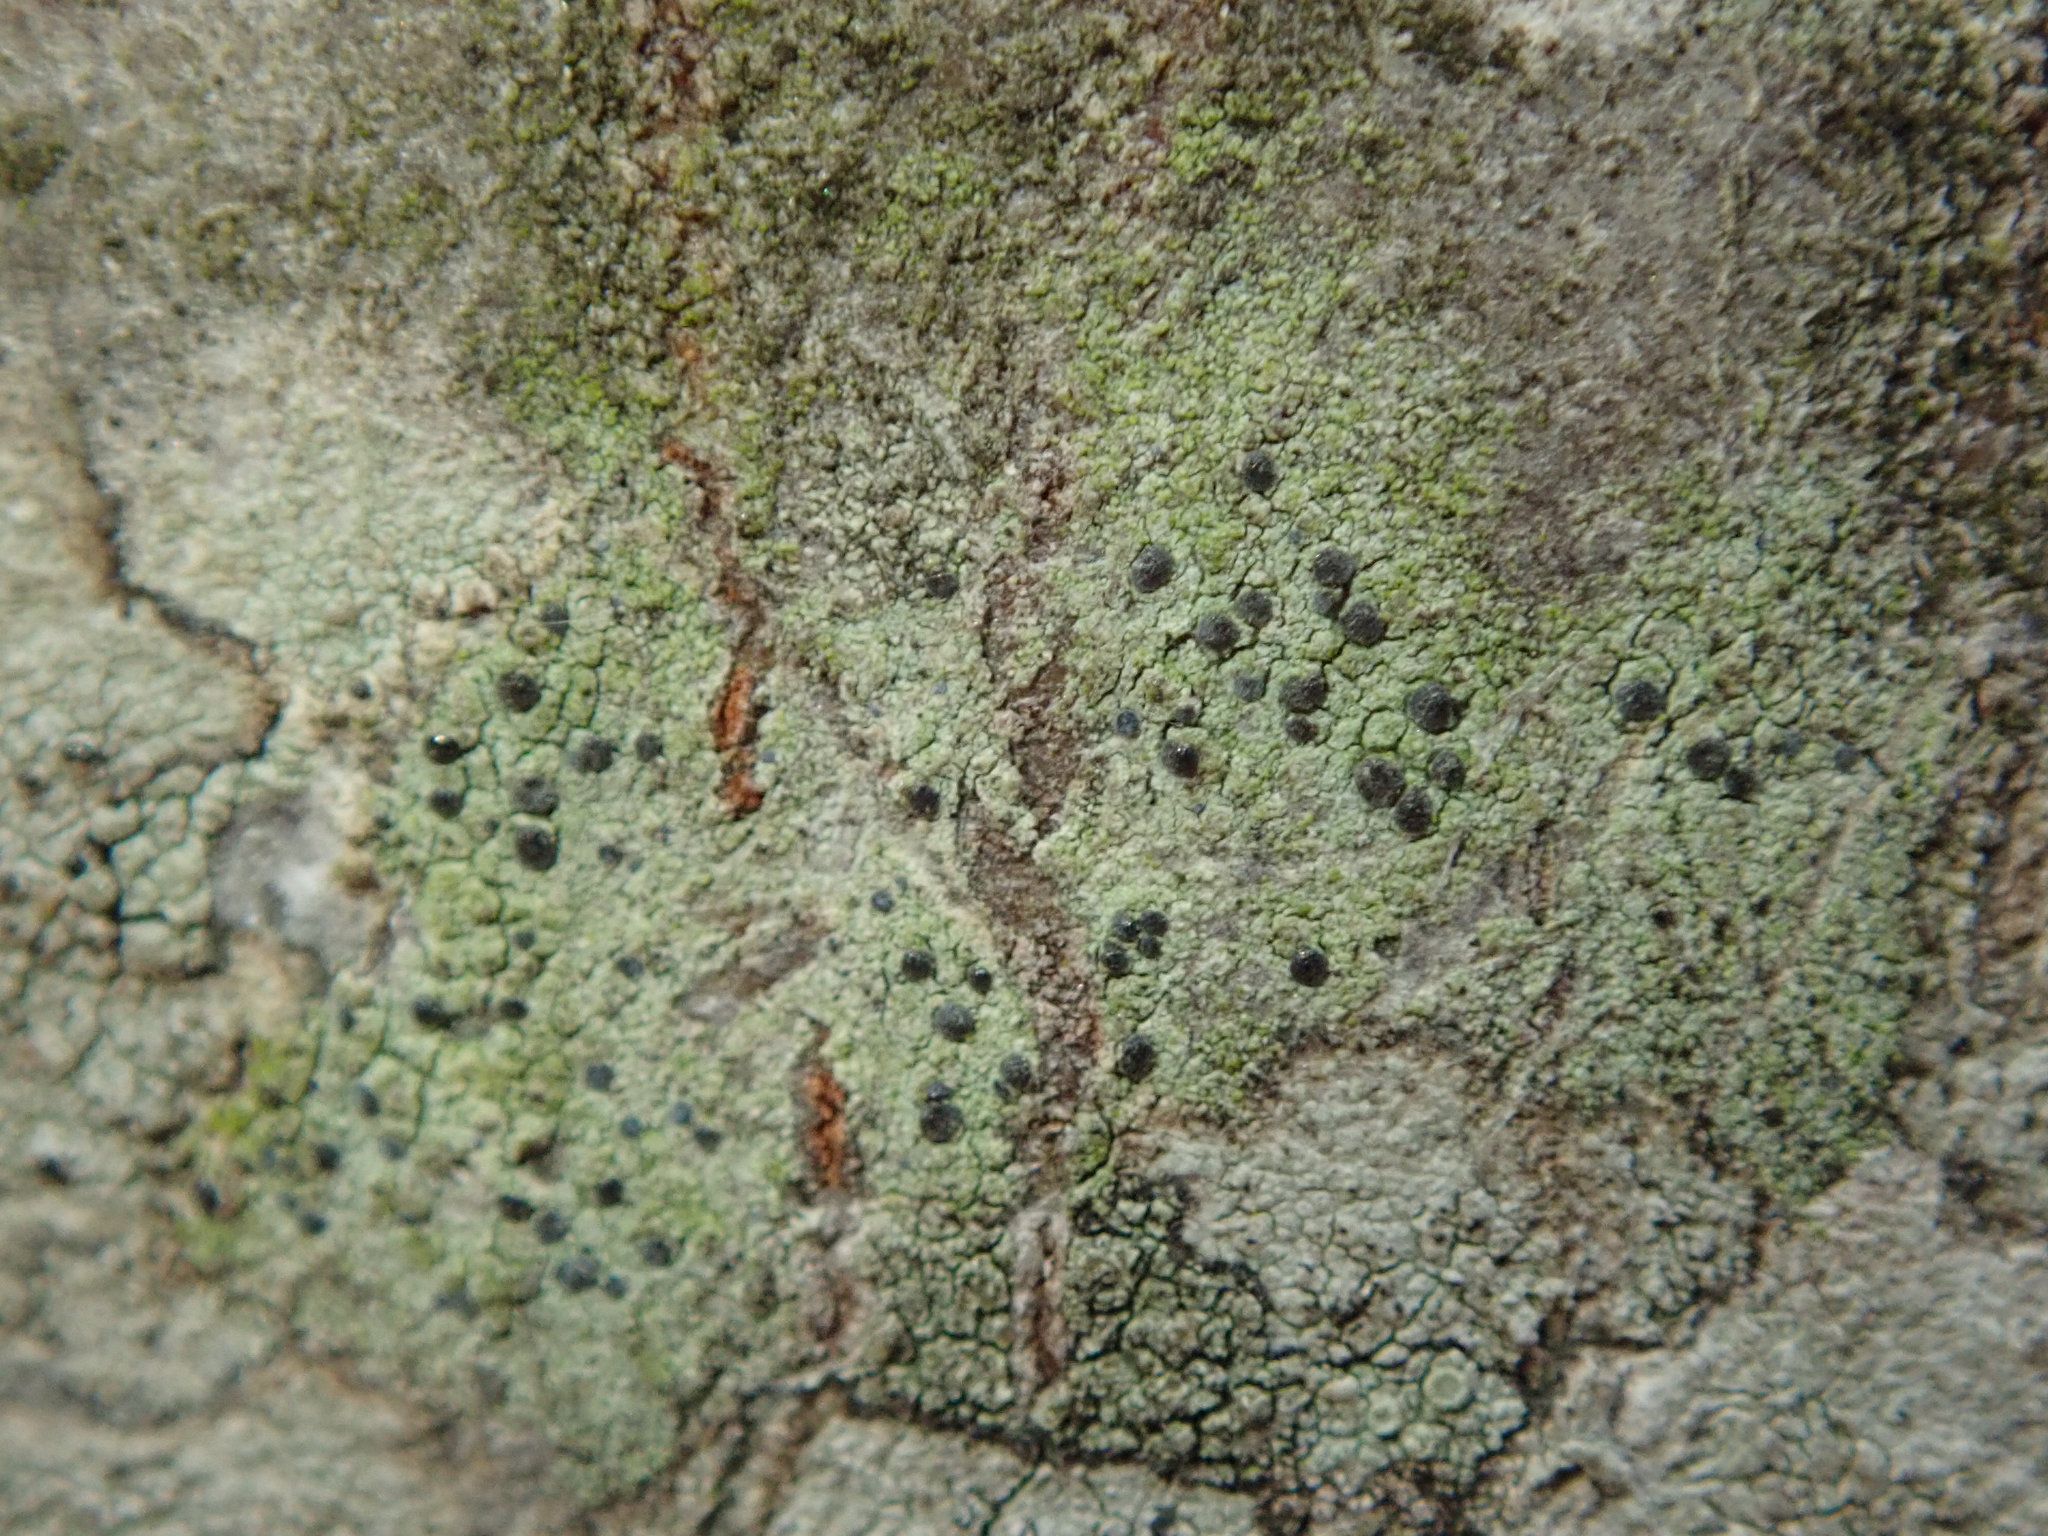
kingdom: Fungi
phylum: Ascomycota
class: Arthoniomycetes
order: Arthoniales
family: Chrysotrichaceae
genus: Chrysothrix
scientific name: Chrysothrix caesia
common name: Frosted comma lichen
